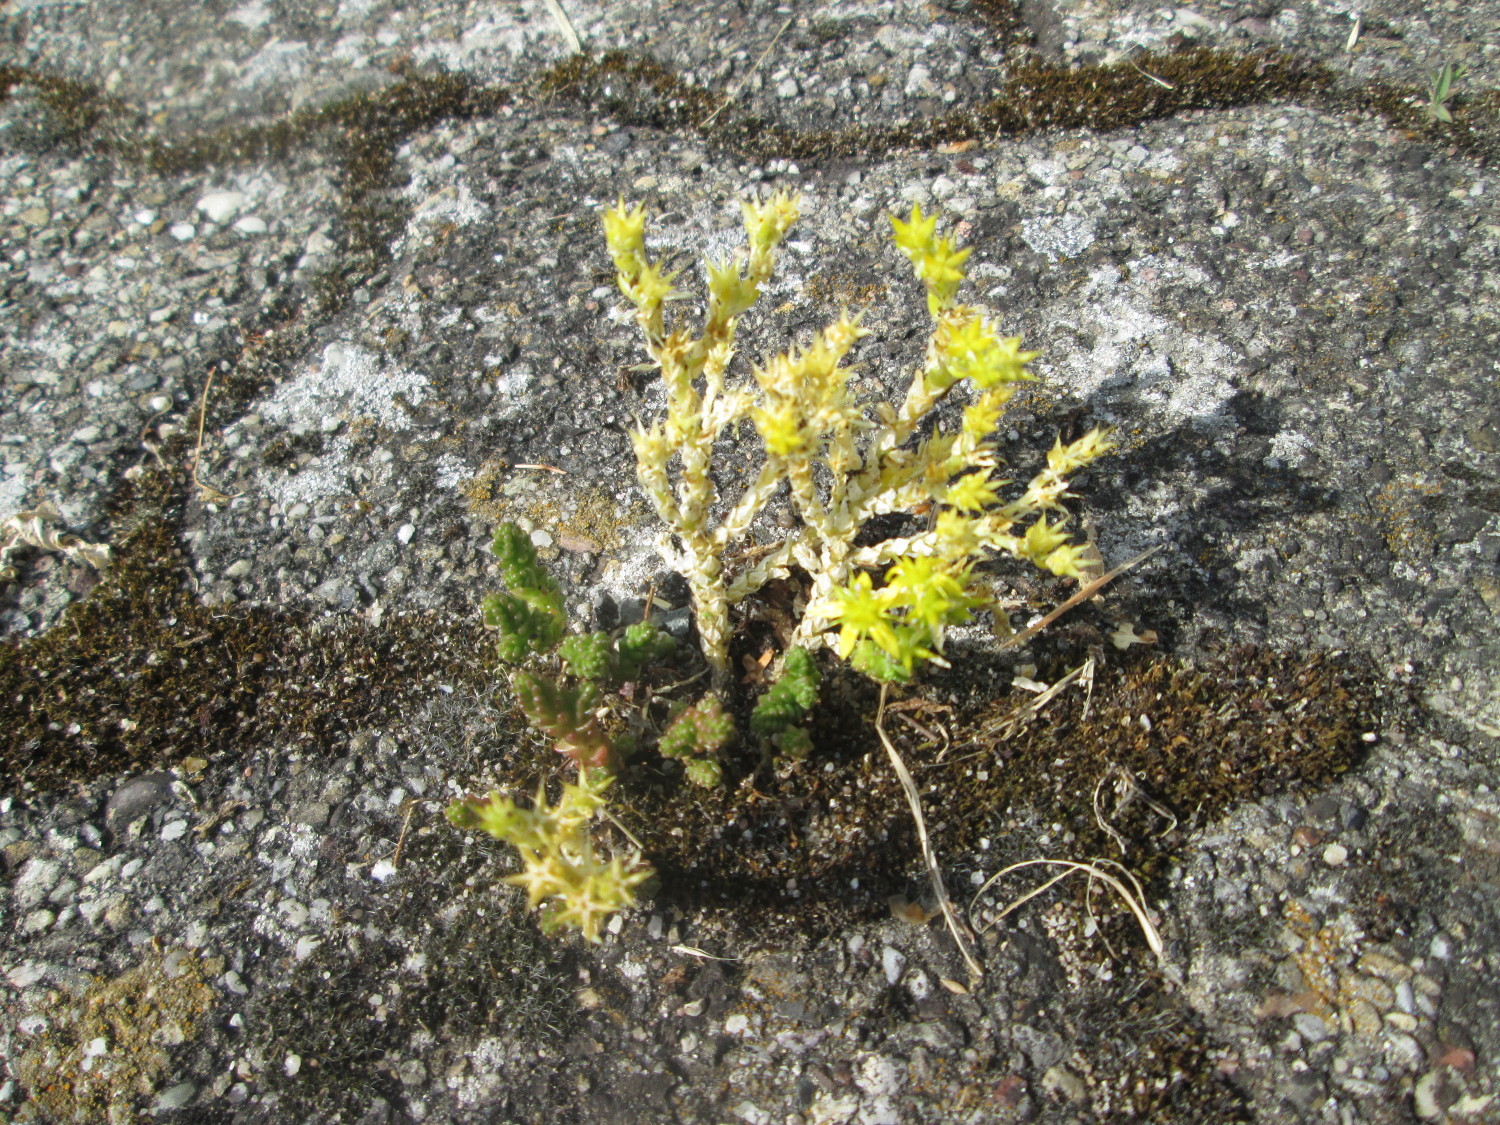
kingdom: Plantae
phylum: Tracheophyta
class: Magnoliopsida
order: Saxifragales
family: Crassulaceae
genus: Sedum
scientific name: Sedum acre
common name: Biting stonecrop
